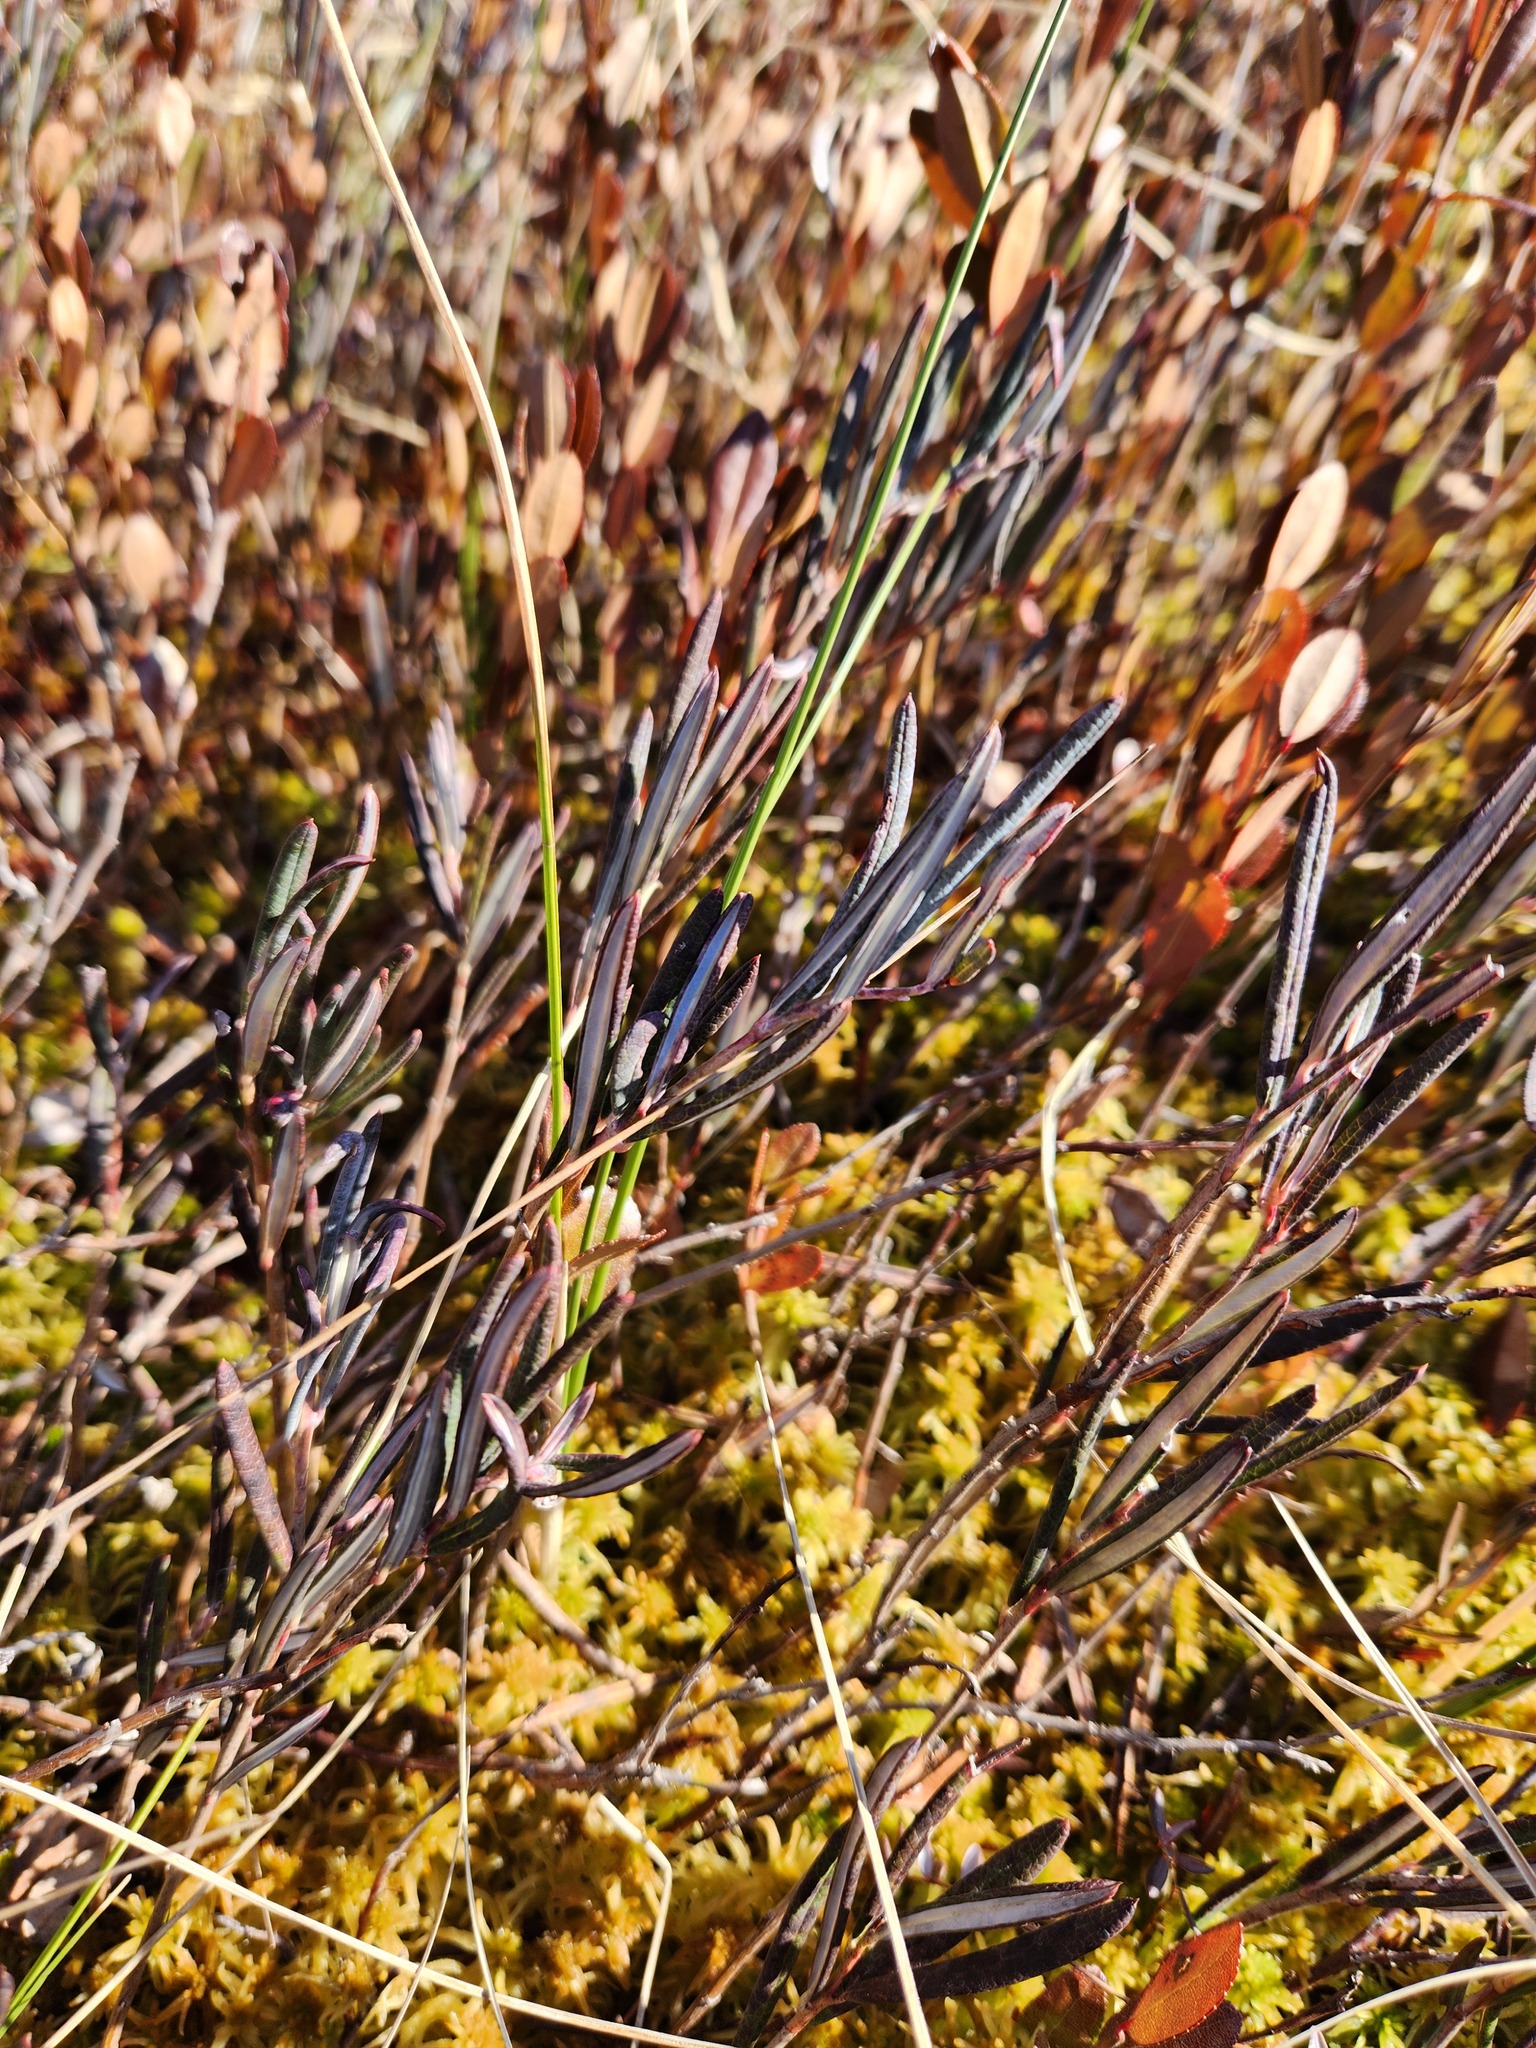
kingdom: Plantae
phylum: Tracheophyta
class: Magnoliopsida
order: Ericales
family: Ericaceae
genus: Andromeda
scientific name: Andromeda polifolia
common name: Bog-rosemary
